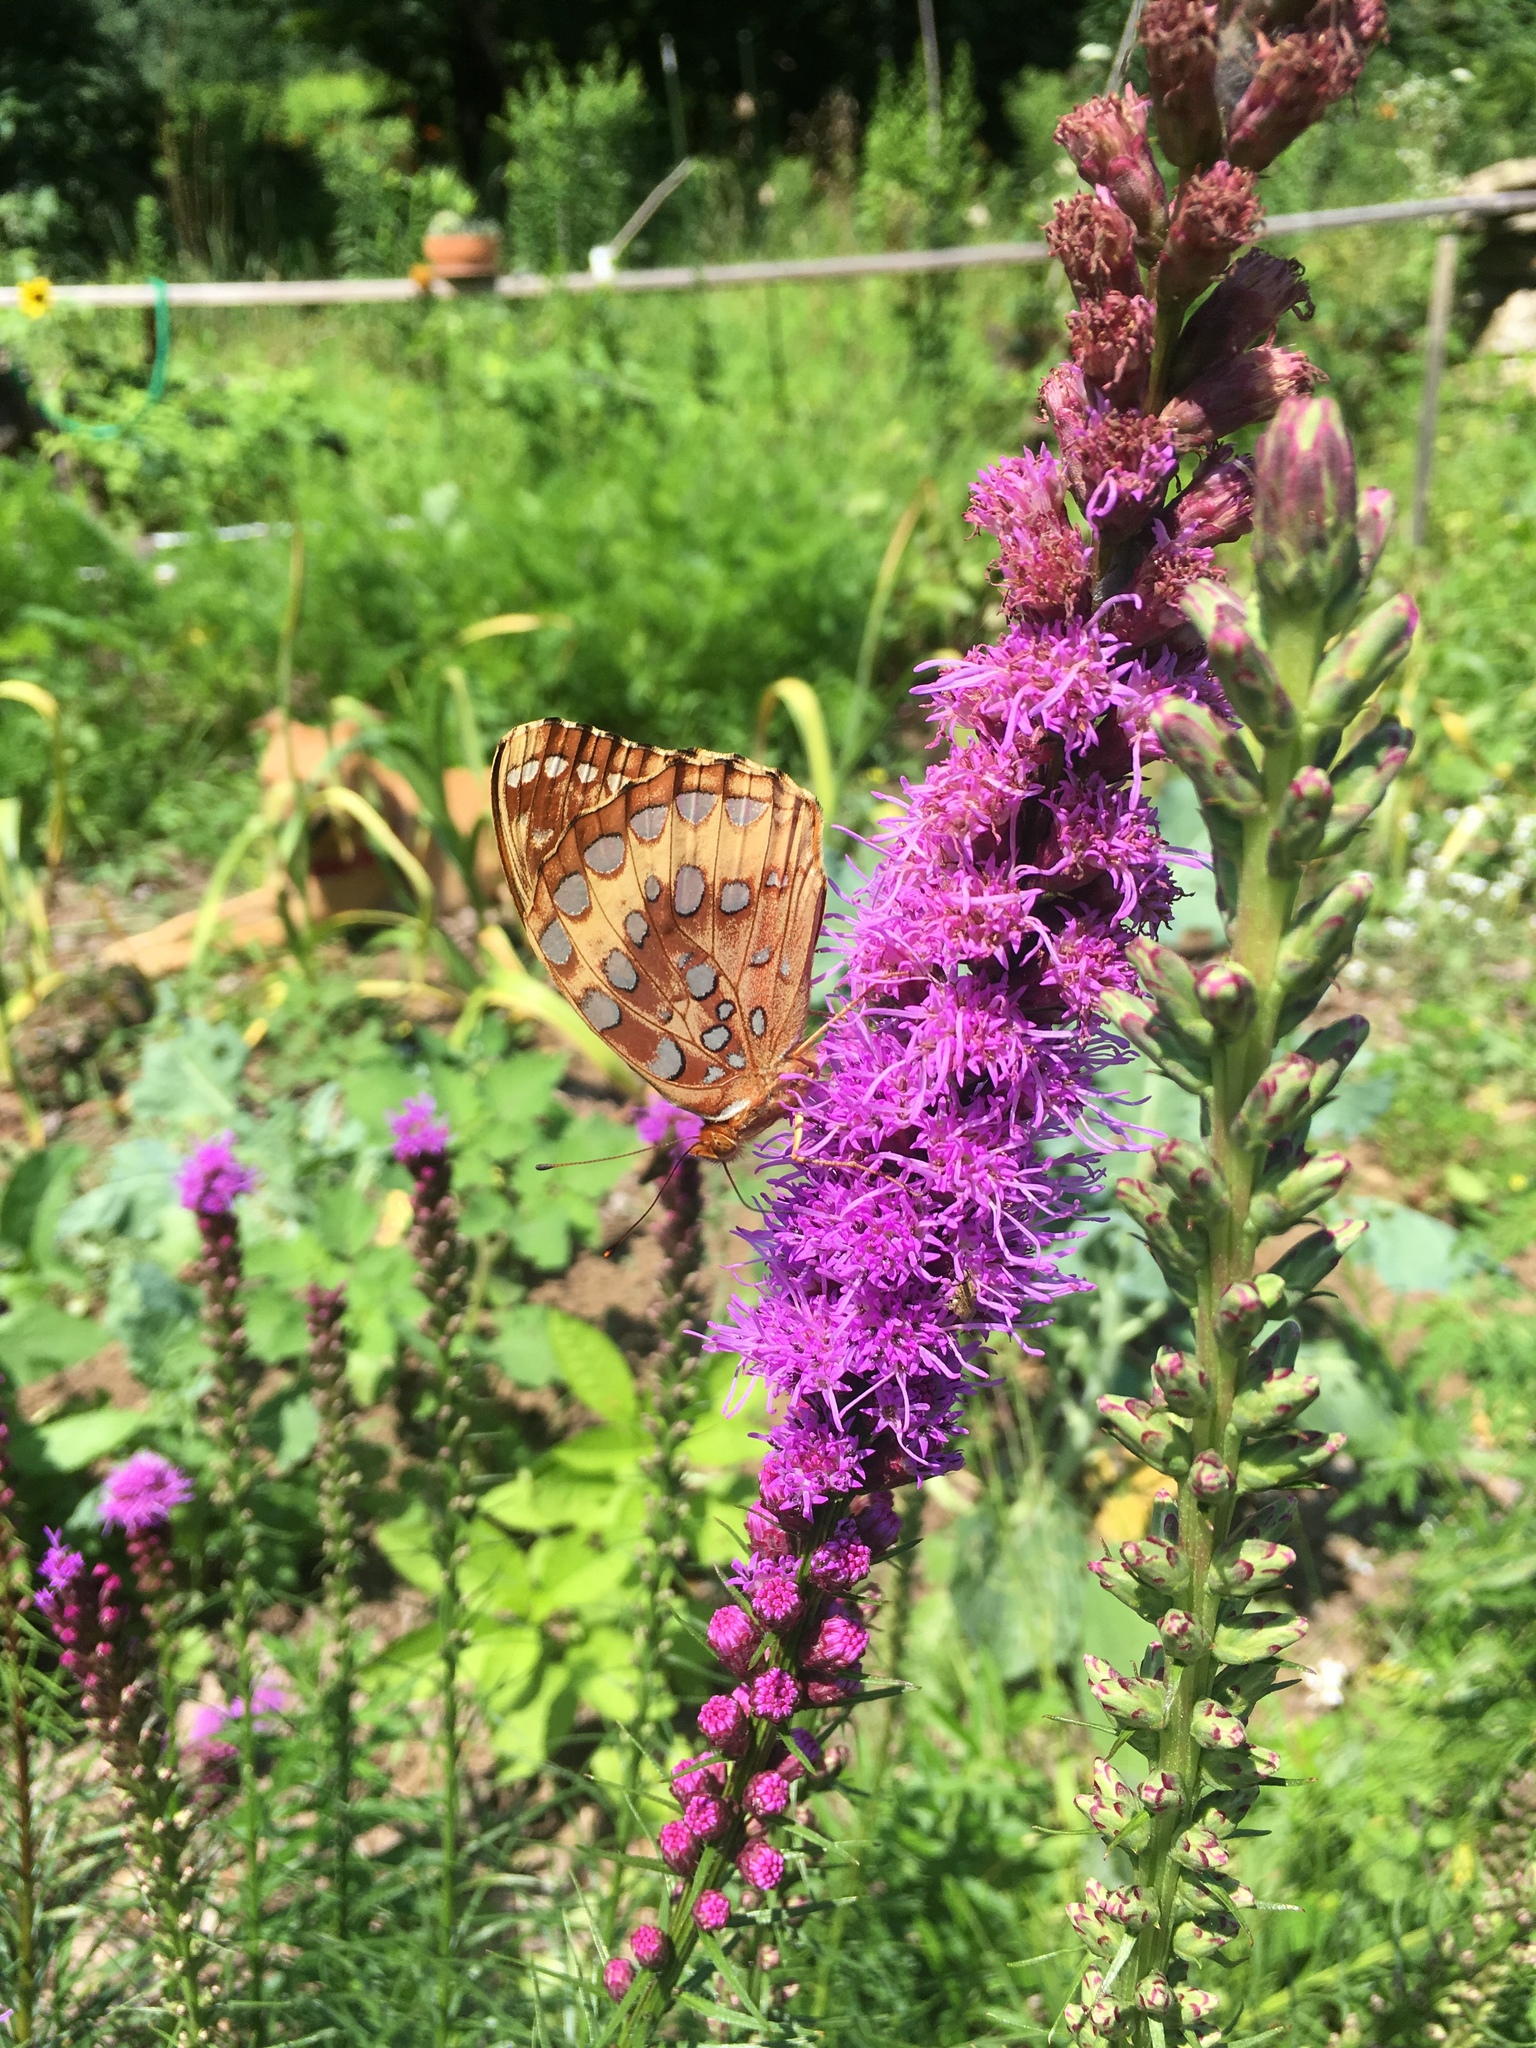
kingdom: Animalia
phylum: Arthropoda
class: Insecta
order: Lepidoptera
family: Nymphalidae
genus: Speyeria
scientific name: Speyeria cybele
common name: Great spangled fritillary
